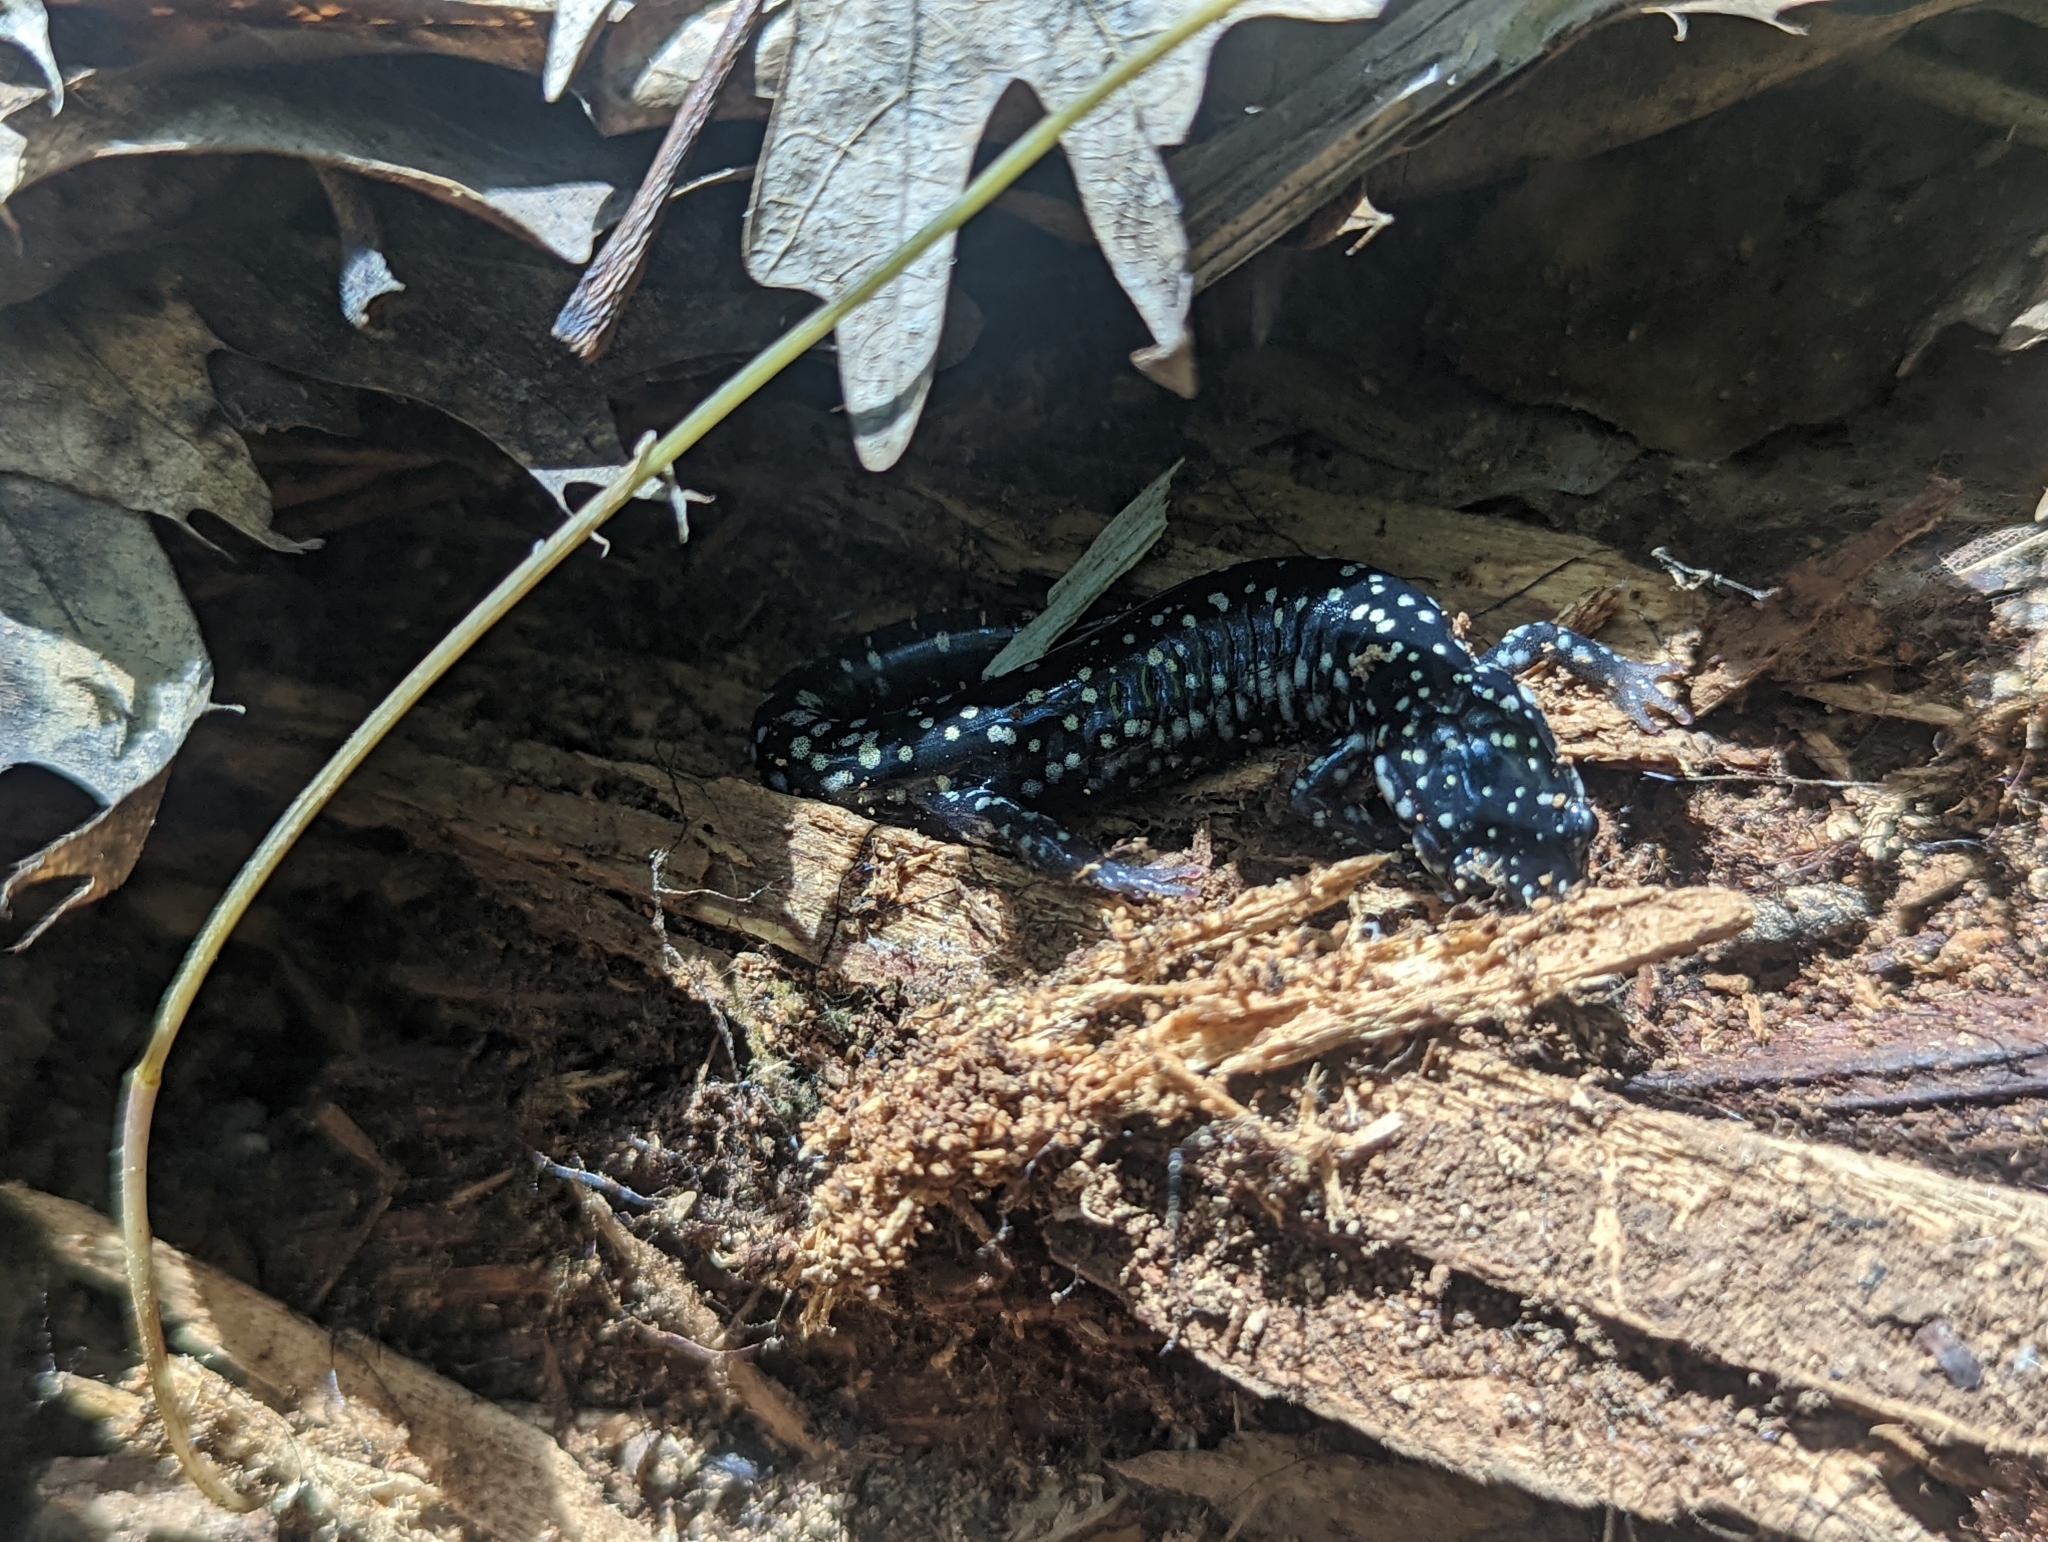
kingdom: Animalia
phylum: Chordata
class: Amphibia
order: Caudata
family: Plethodontidae
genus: Plethodon
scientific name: Plethodon glutinosus
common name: Northern slimy salamander
